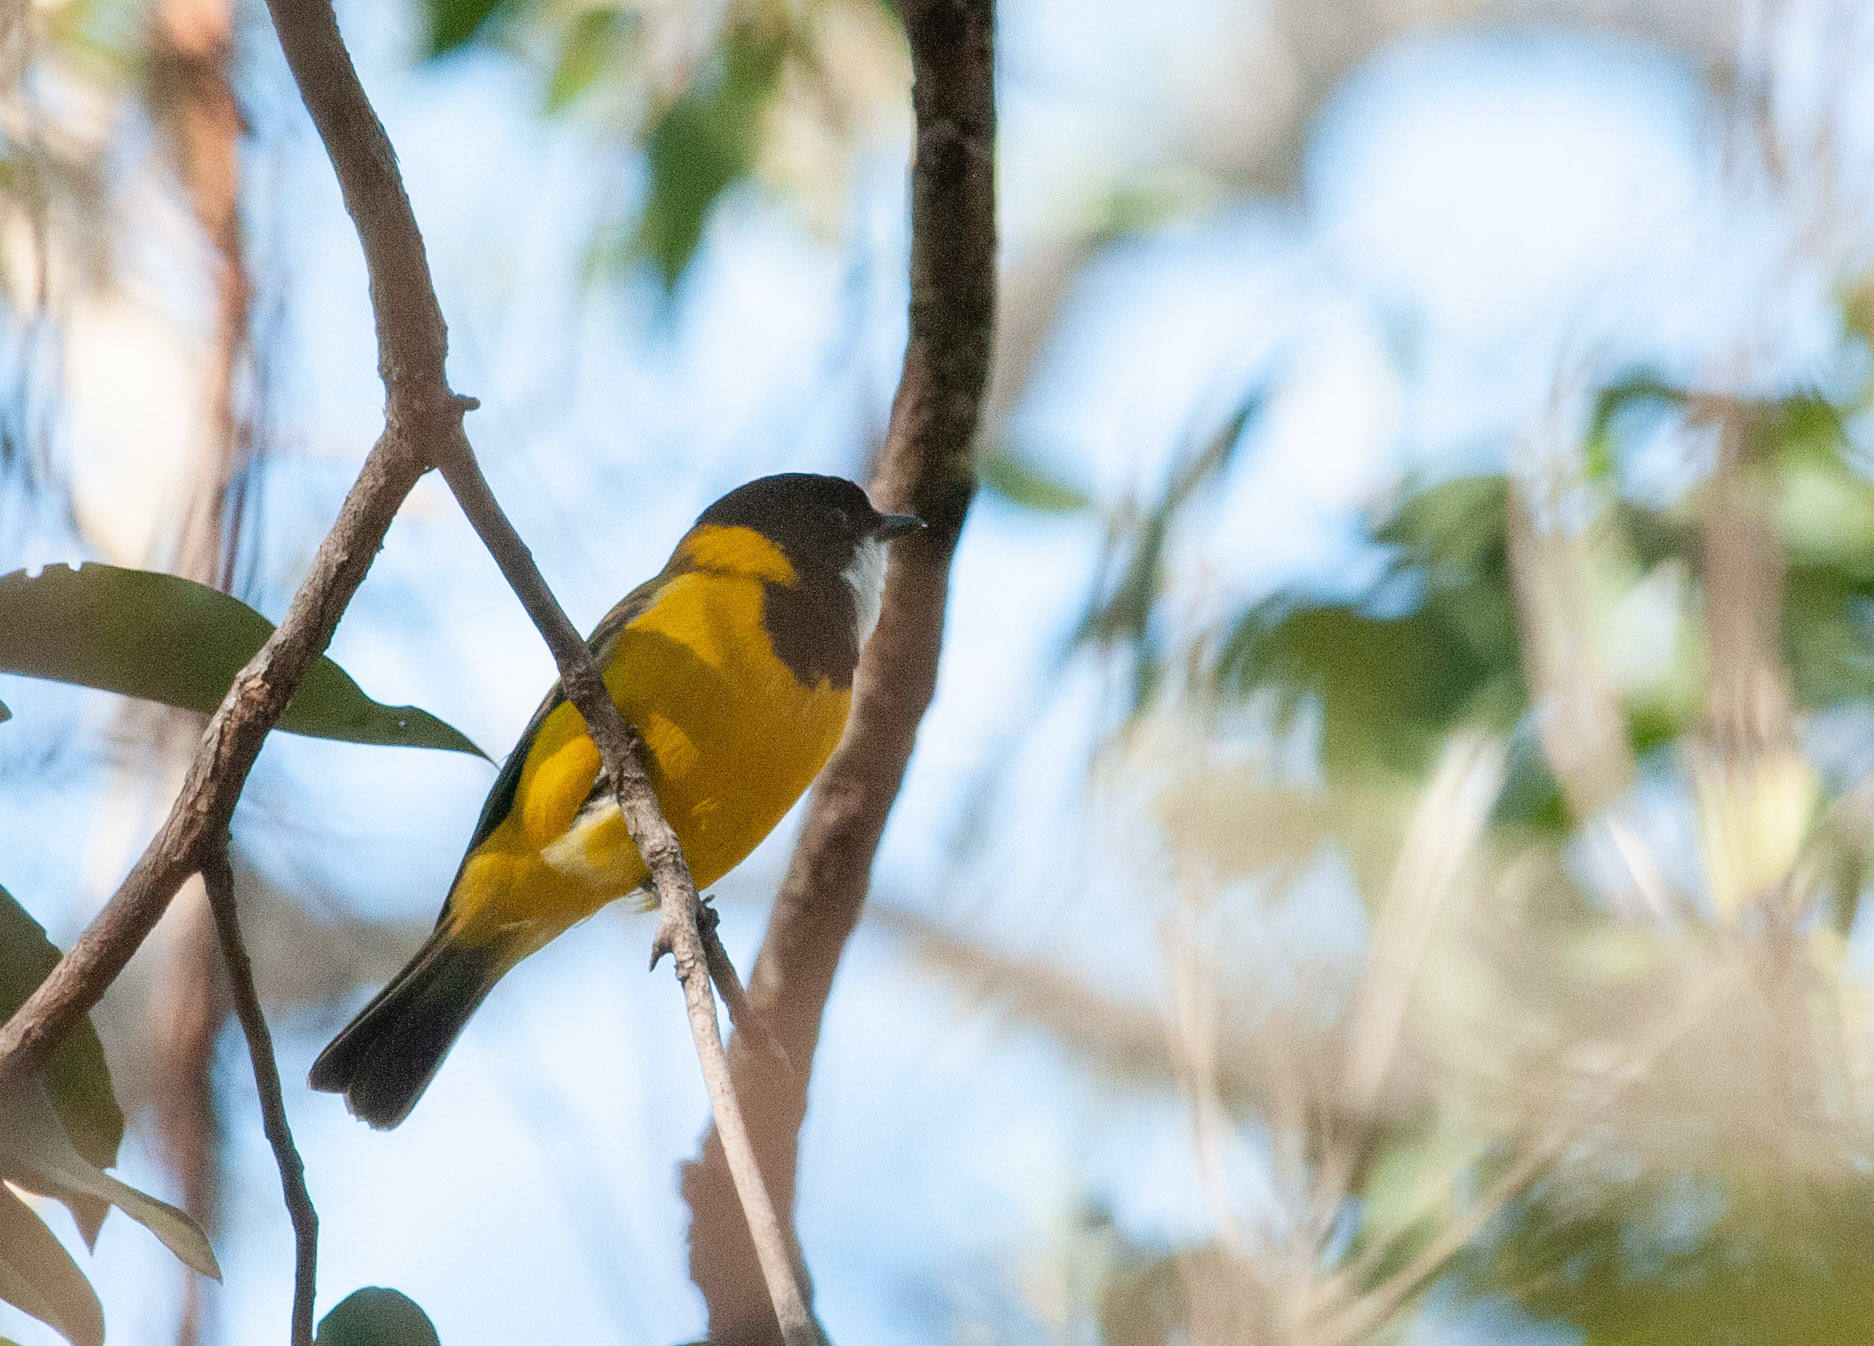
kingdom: Animalia
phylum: Chordata
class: Aves
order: Passeriformes
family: Pachycephalidae
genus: Pachycephala
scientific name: Pachycephala pectoralis
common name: Australian golden whistler
